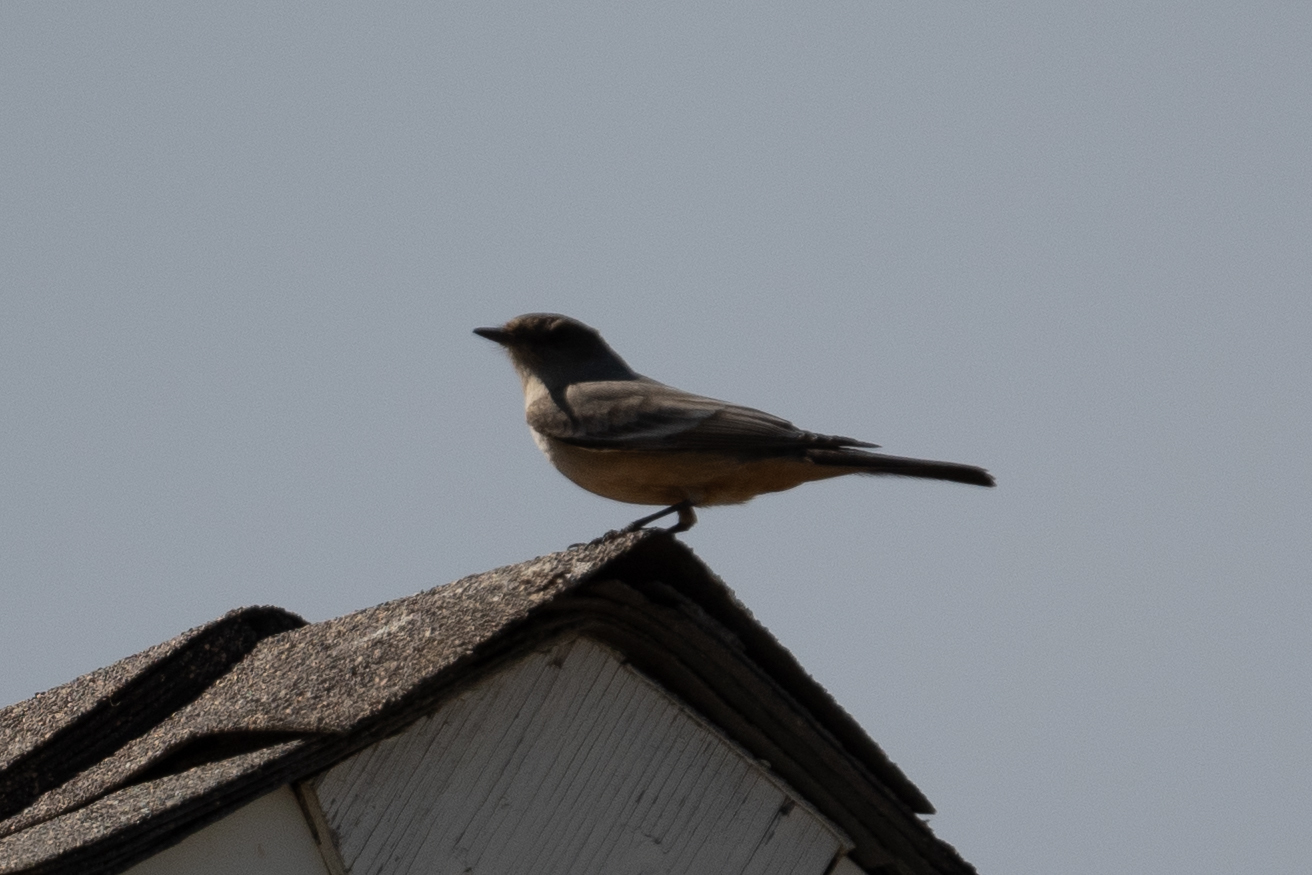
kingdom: Animalia
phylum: Chordata
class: Aves
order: Passeriformes
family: Tyrannidae
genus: Sayornis
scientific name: Sayornis saya
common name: Say's phoebe
